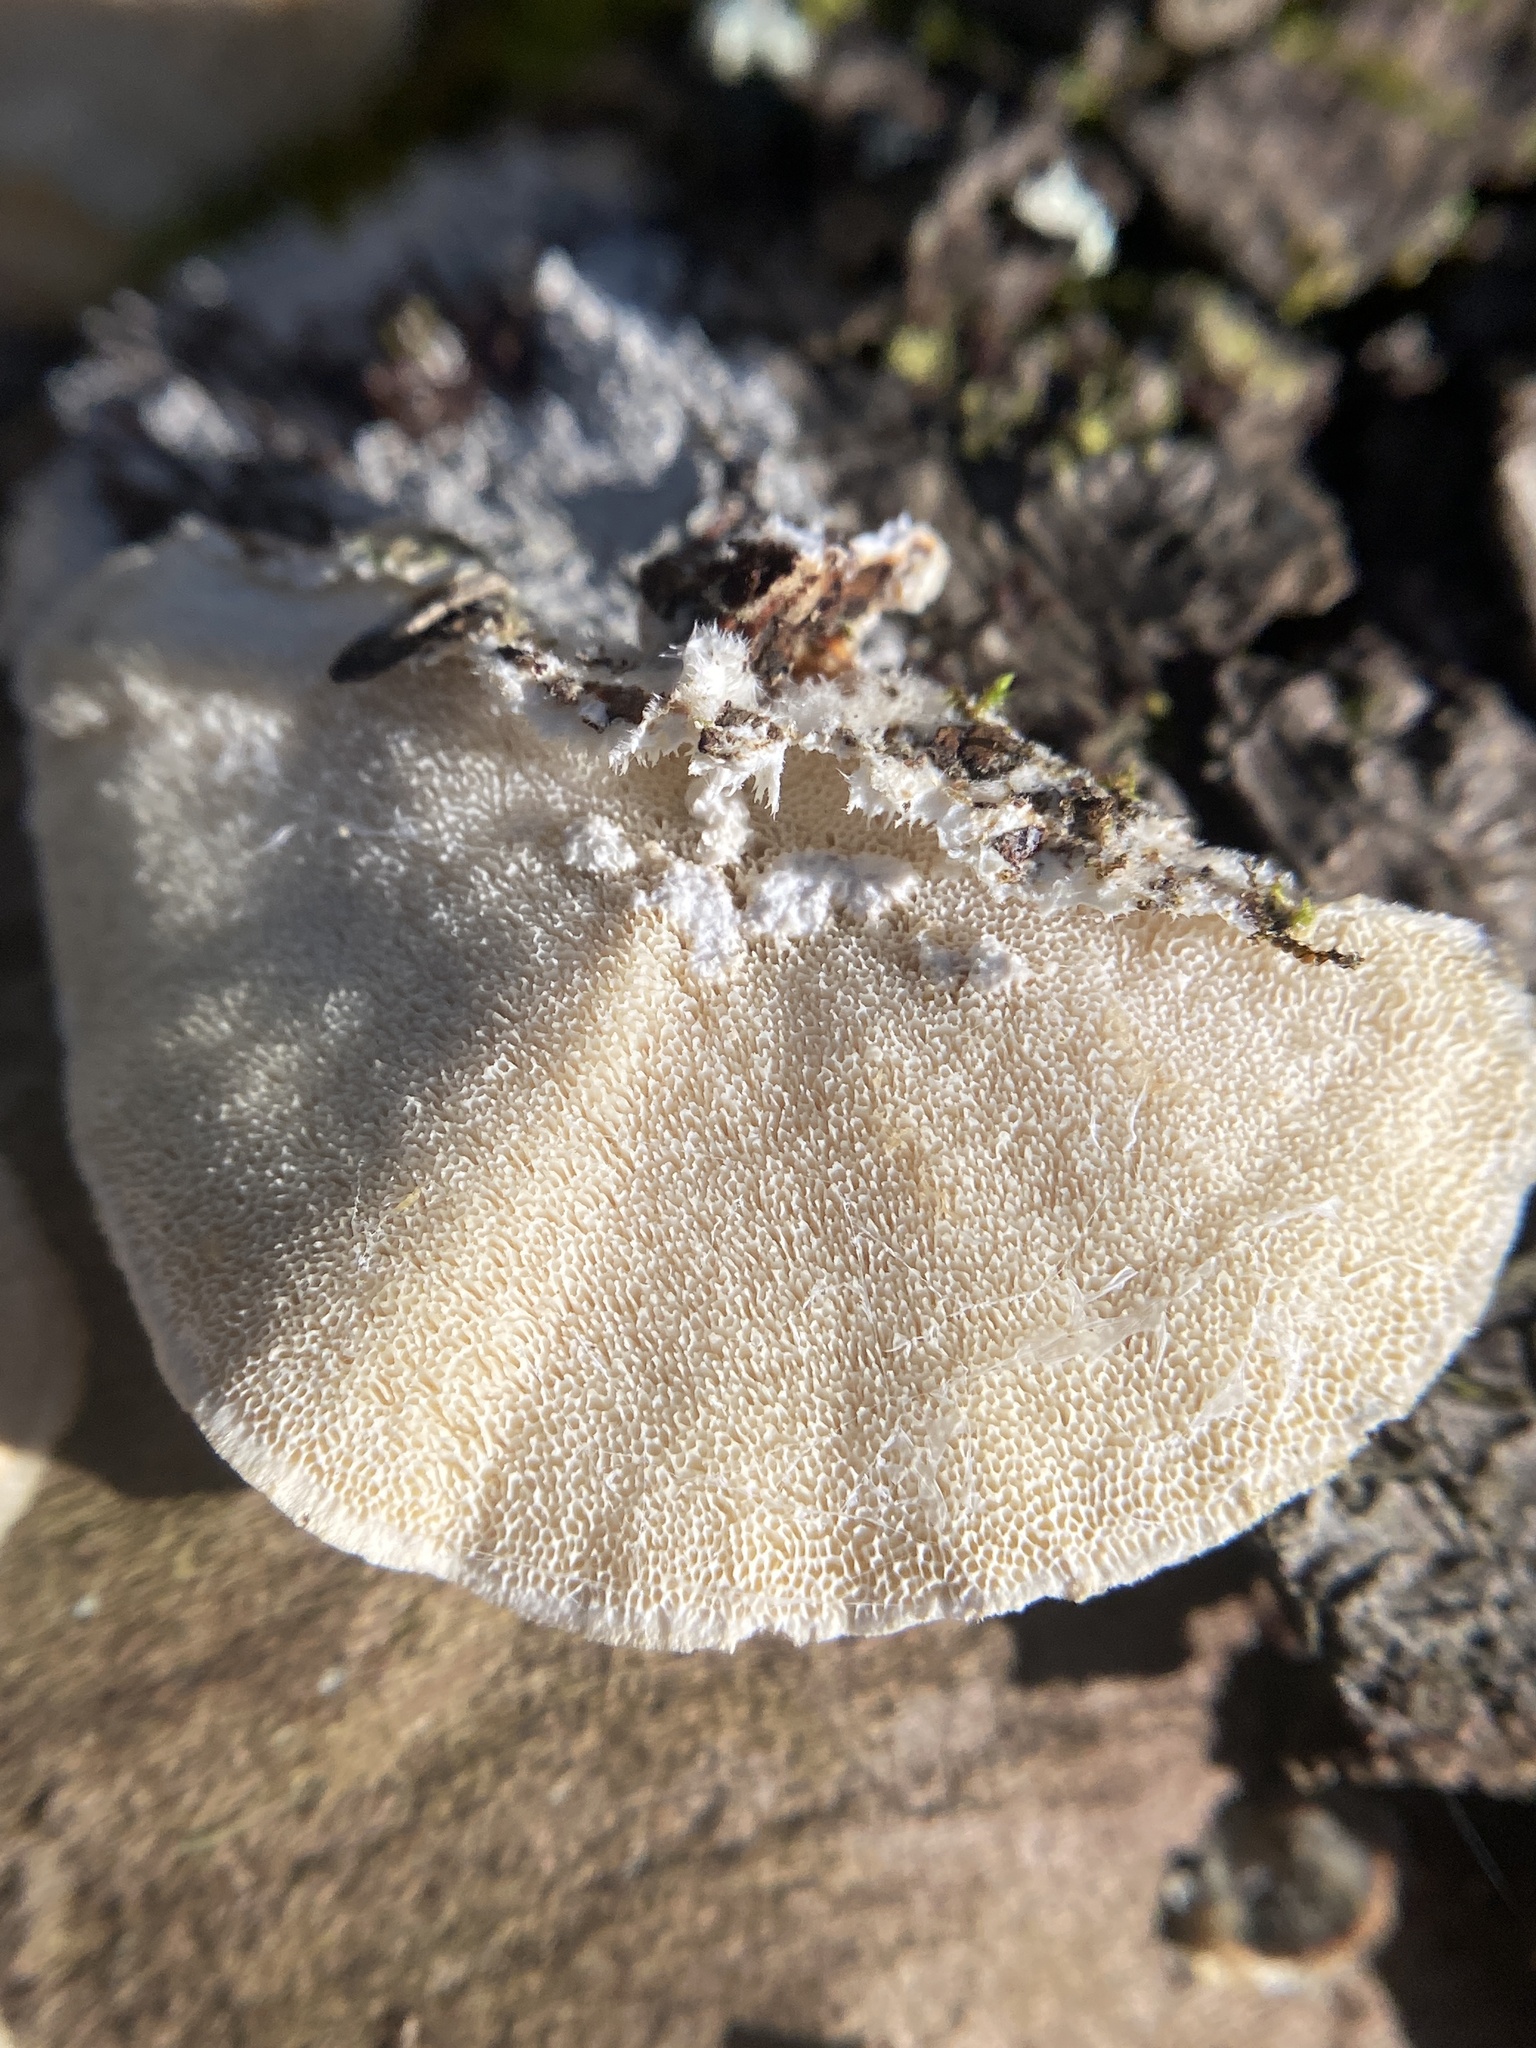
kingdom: Fungi
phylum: Basidiomycota
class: Agaricomycetes
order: Polyporales
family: Polyporaceae
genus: Trametes
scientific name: Trametes versicolor
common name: Turkeytail
